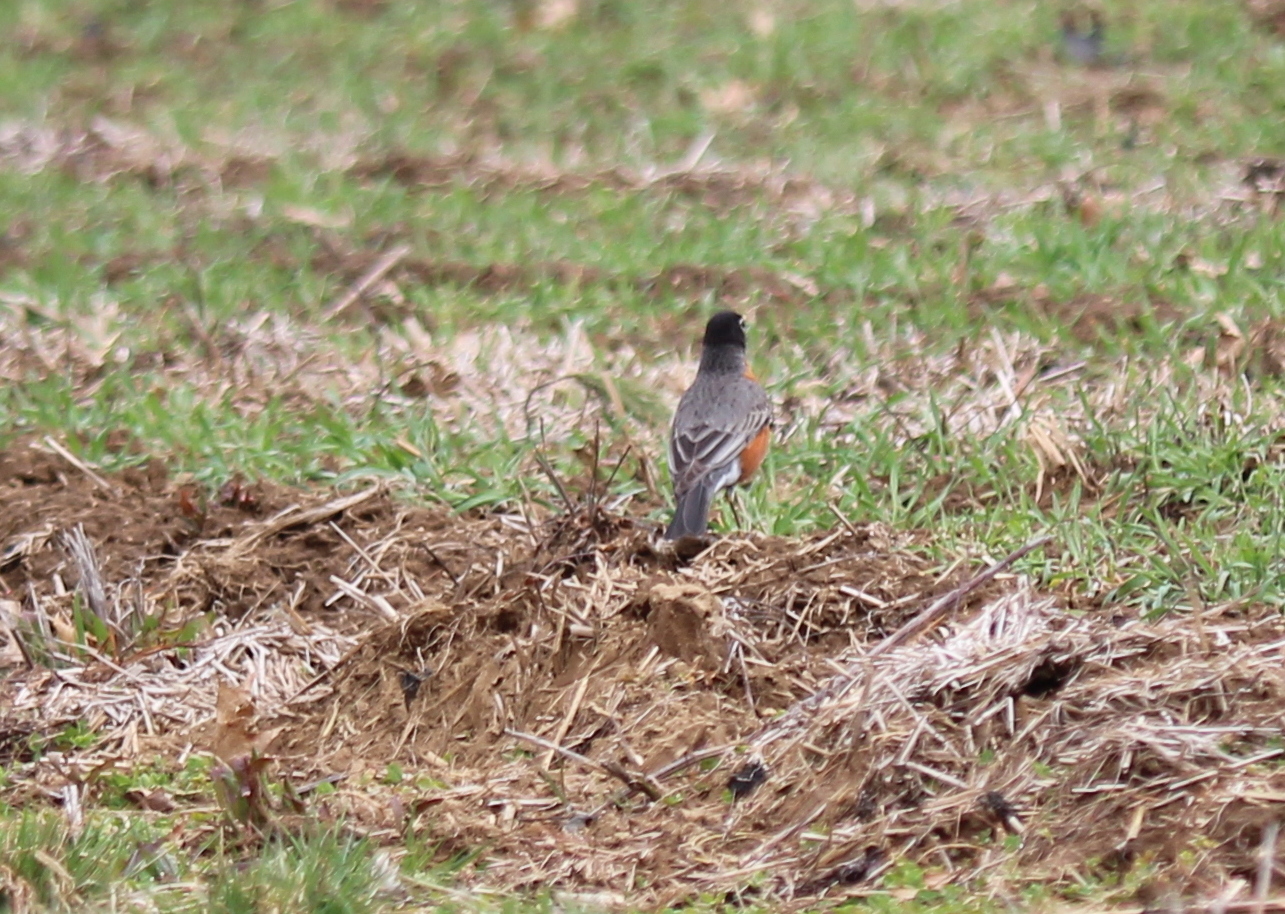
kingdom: Animalia
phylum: Chordata
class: Aves
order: Passeriformes
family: Turdidae
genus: Turdus
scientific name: Turdus migratorius
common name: American robin
